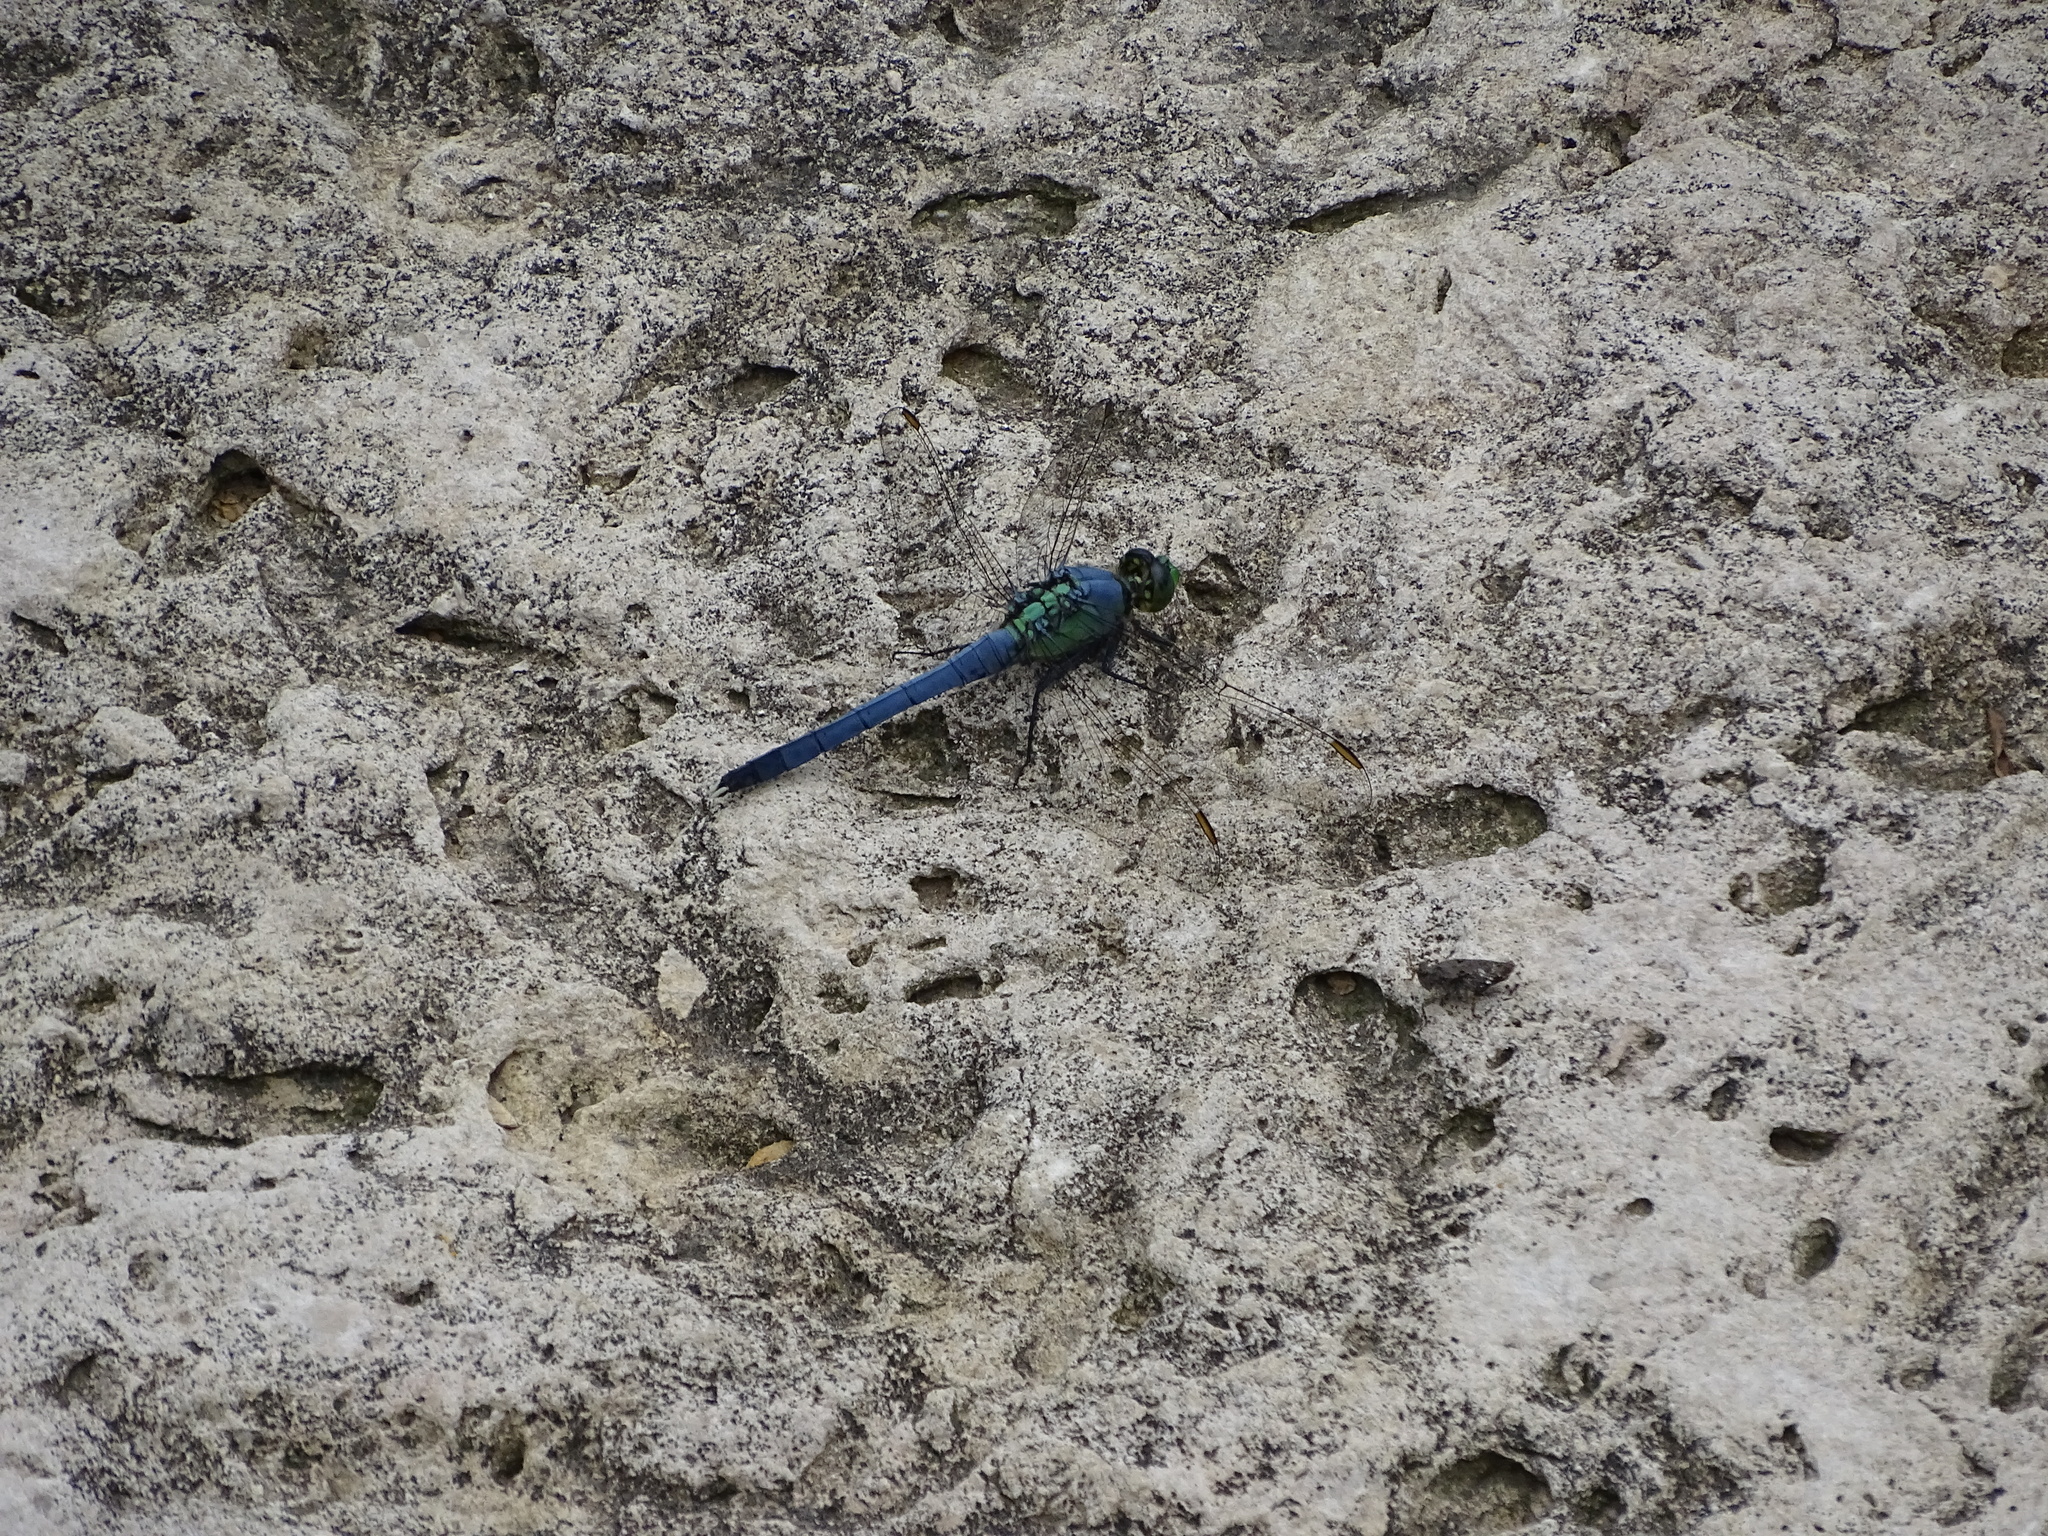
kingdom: Animalia
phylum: Arthropoda
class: Insecta
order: Odonata
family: Libellulidae
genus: Erythemis
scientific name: Erythemis simplicicollis
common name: Eastern pondhawk
